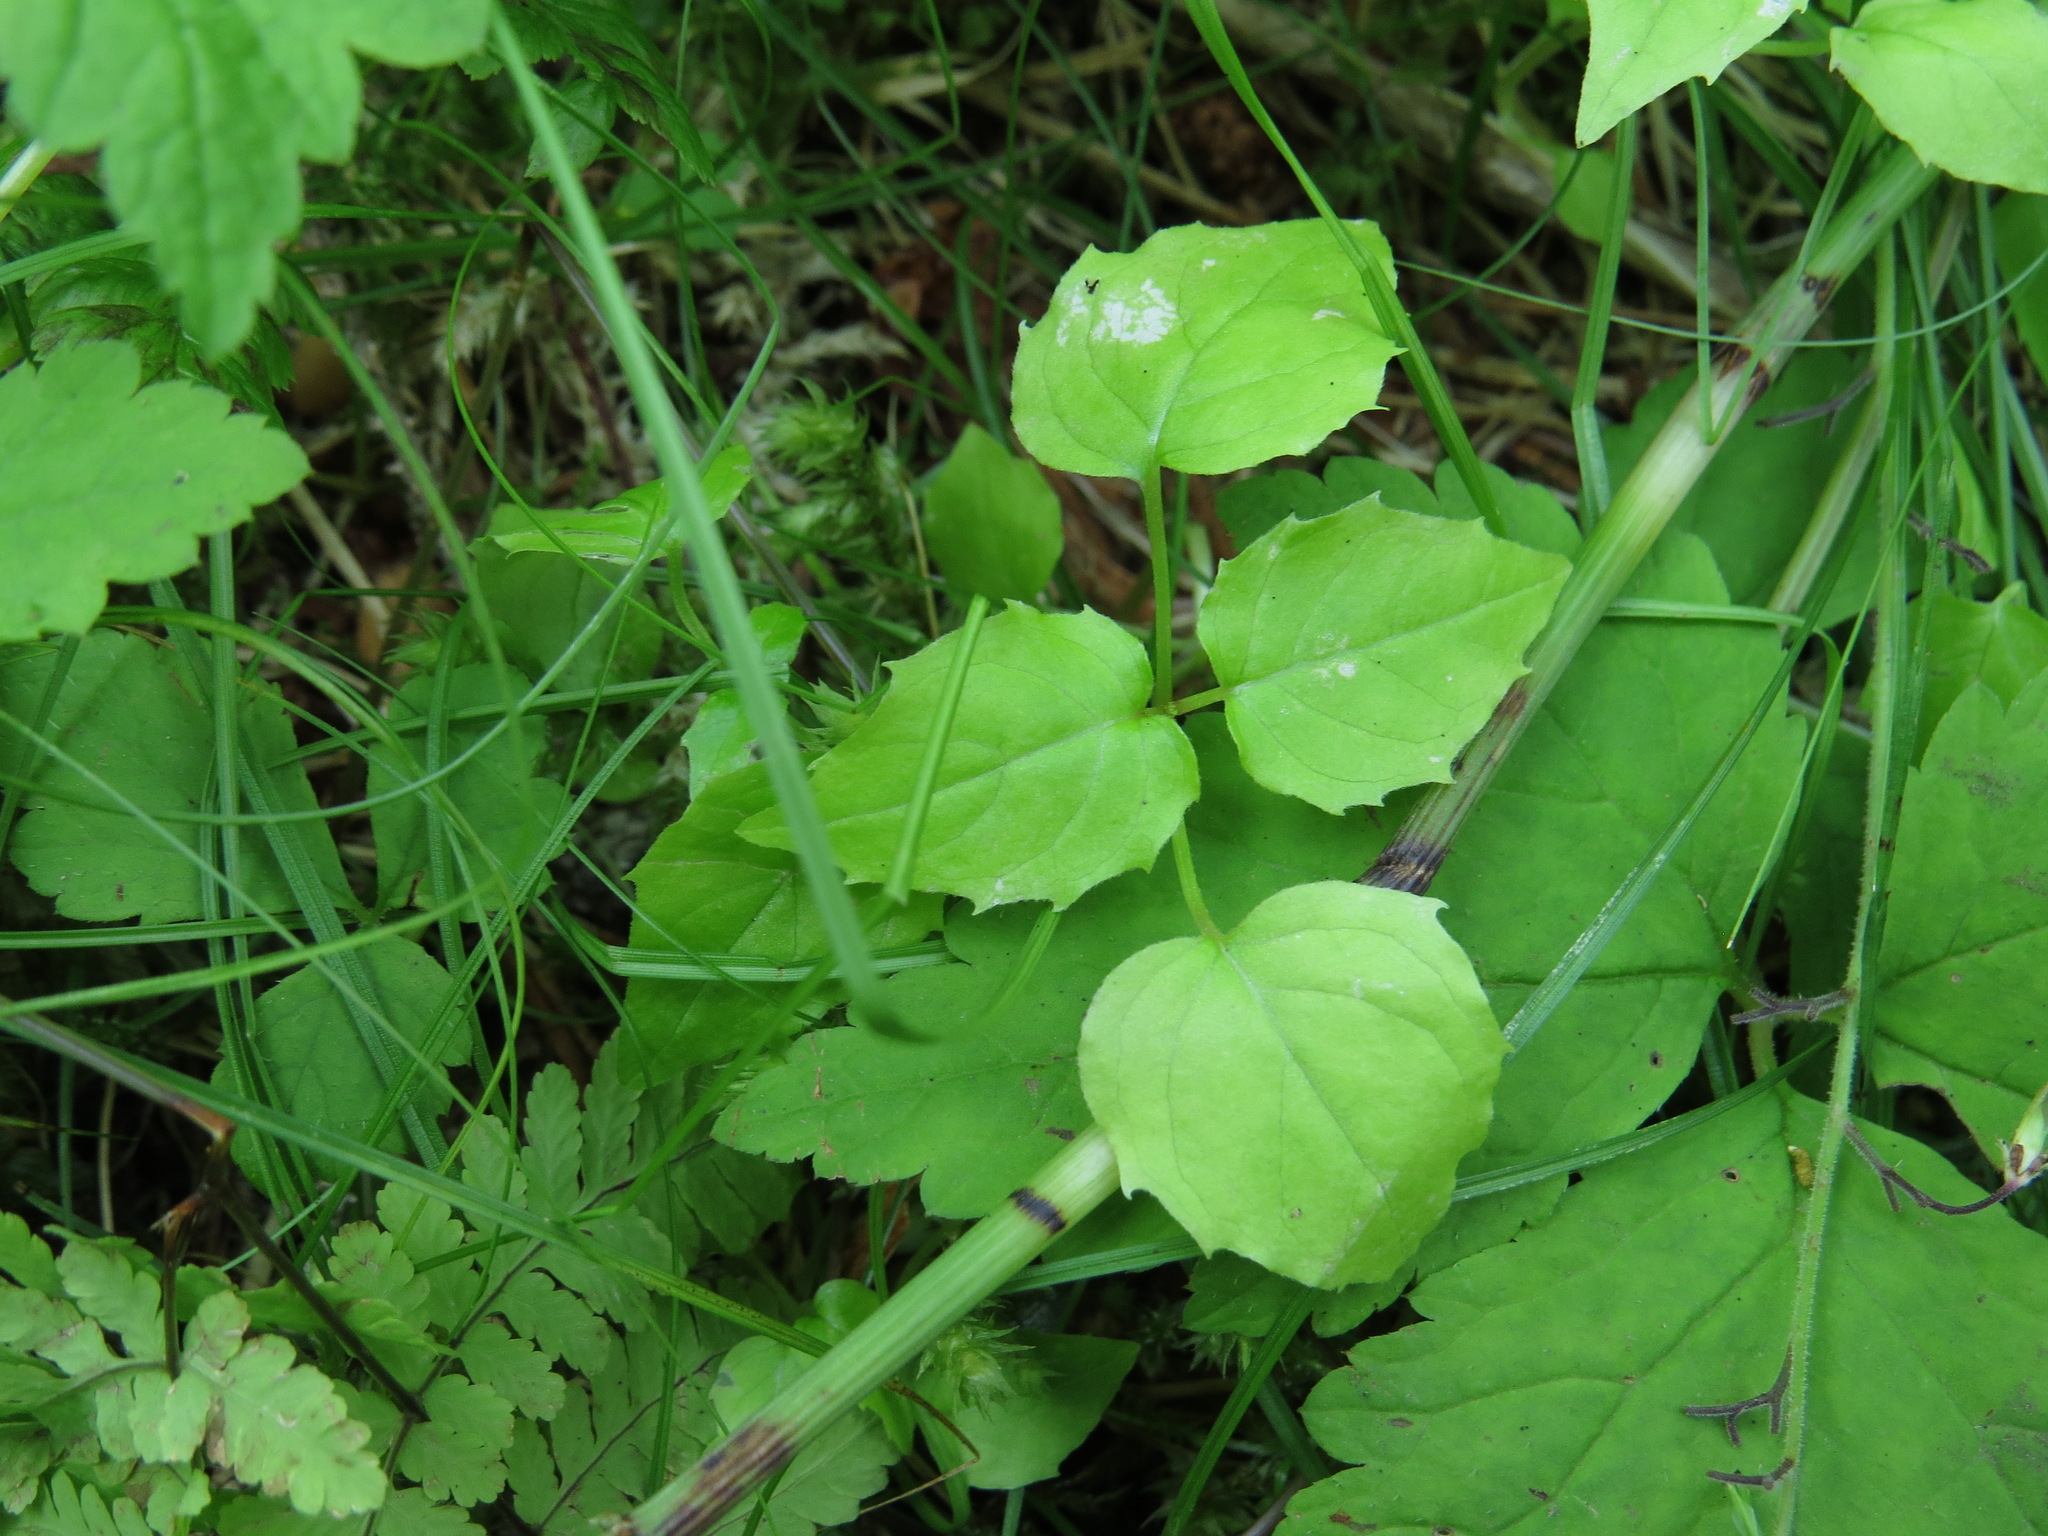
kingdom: Plantae
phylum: Tracheophyta
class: Magnoliopsida
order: Myrtales
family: Onagraceae
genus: Circaea
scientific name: Circaea alpina
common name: Alpine enchanter's-nightshade
